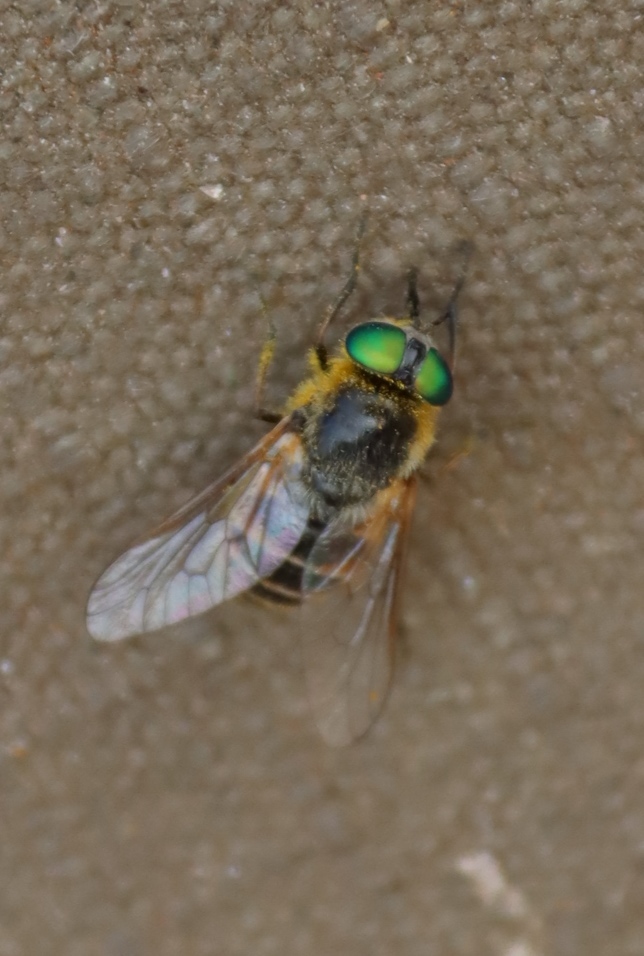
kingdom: Animalia
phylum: Arthropoda
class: Insecta
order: Diptera
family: Tabanidae
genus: Rhigioglossa
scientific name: Rhigioglossa edentula
